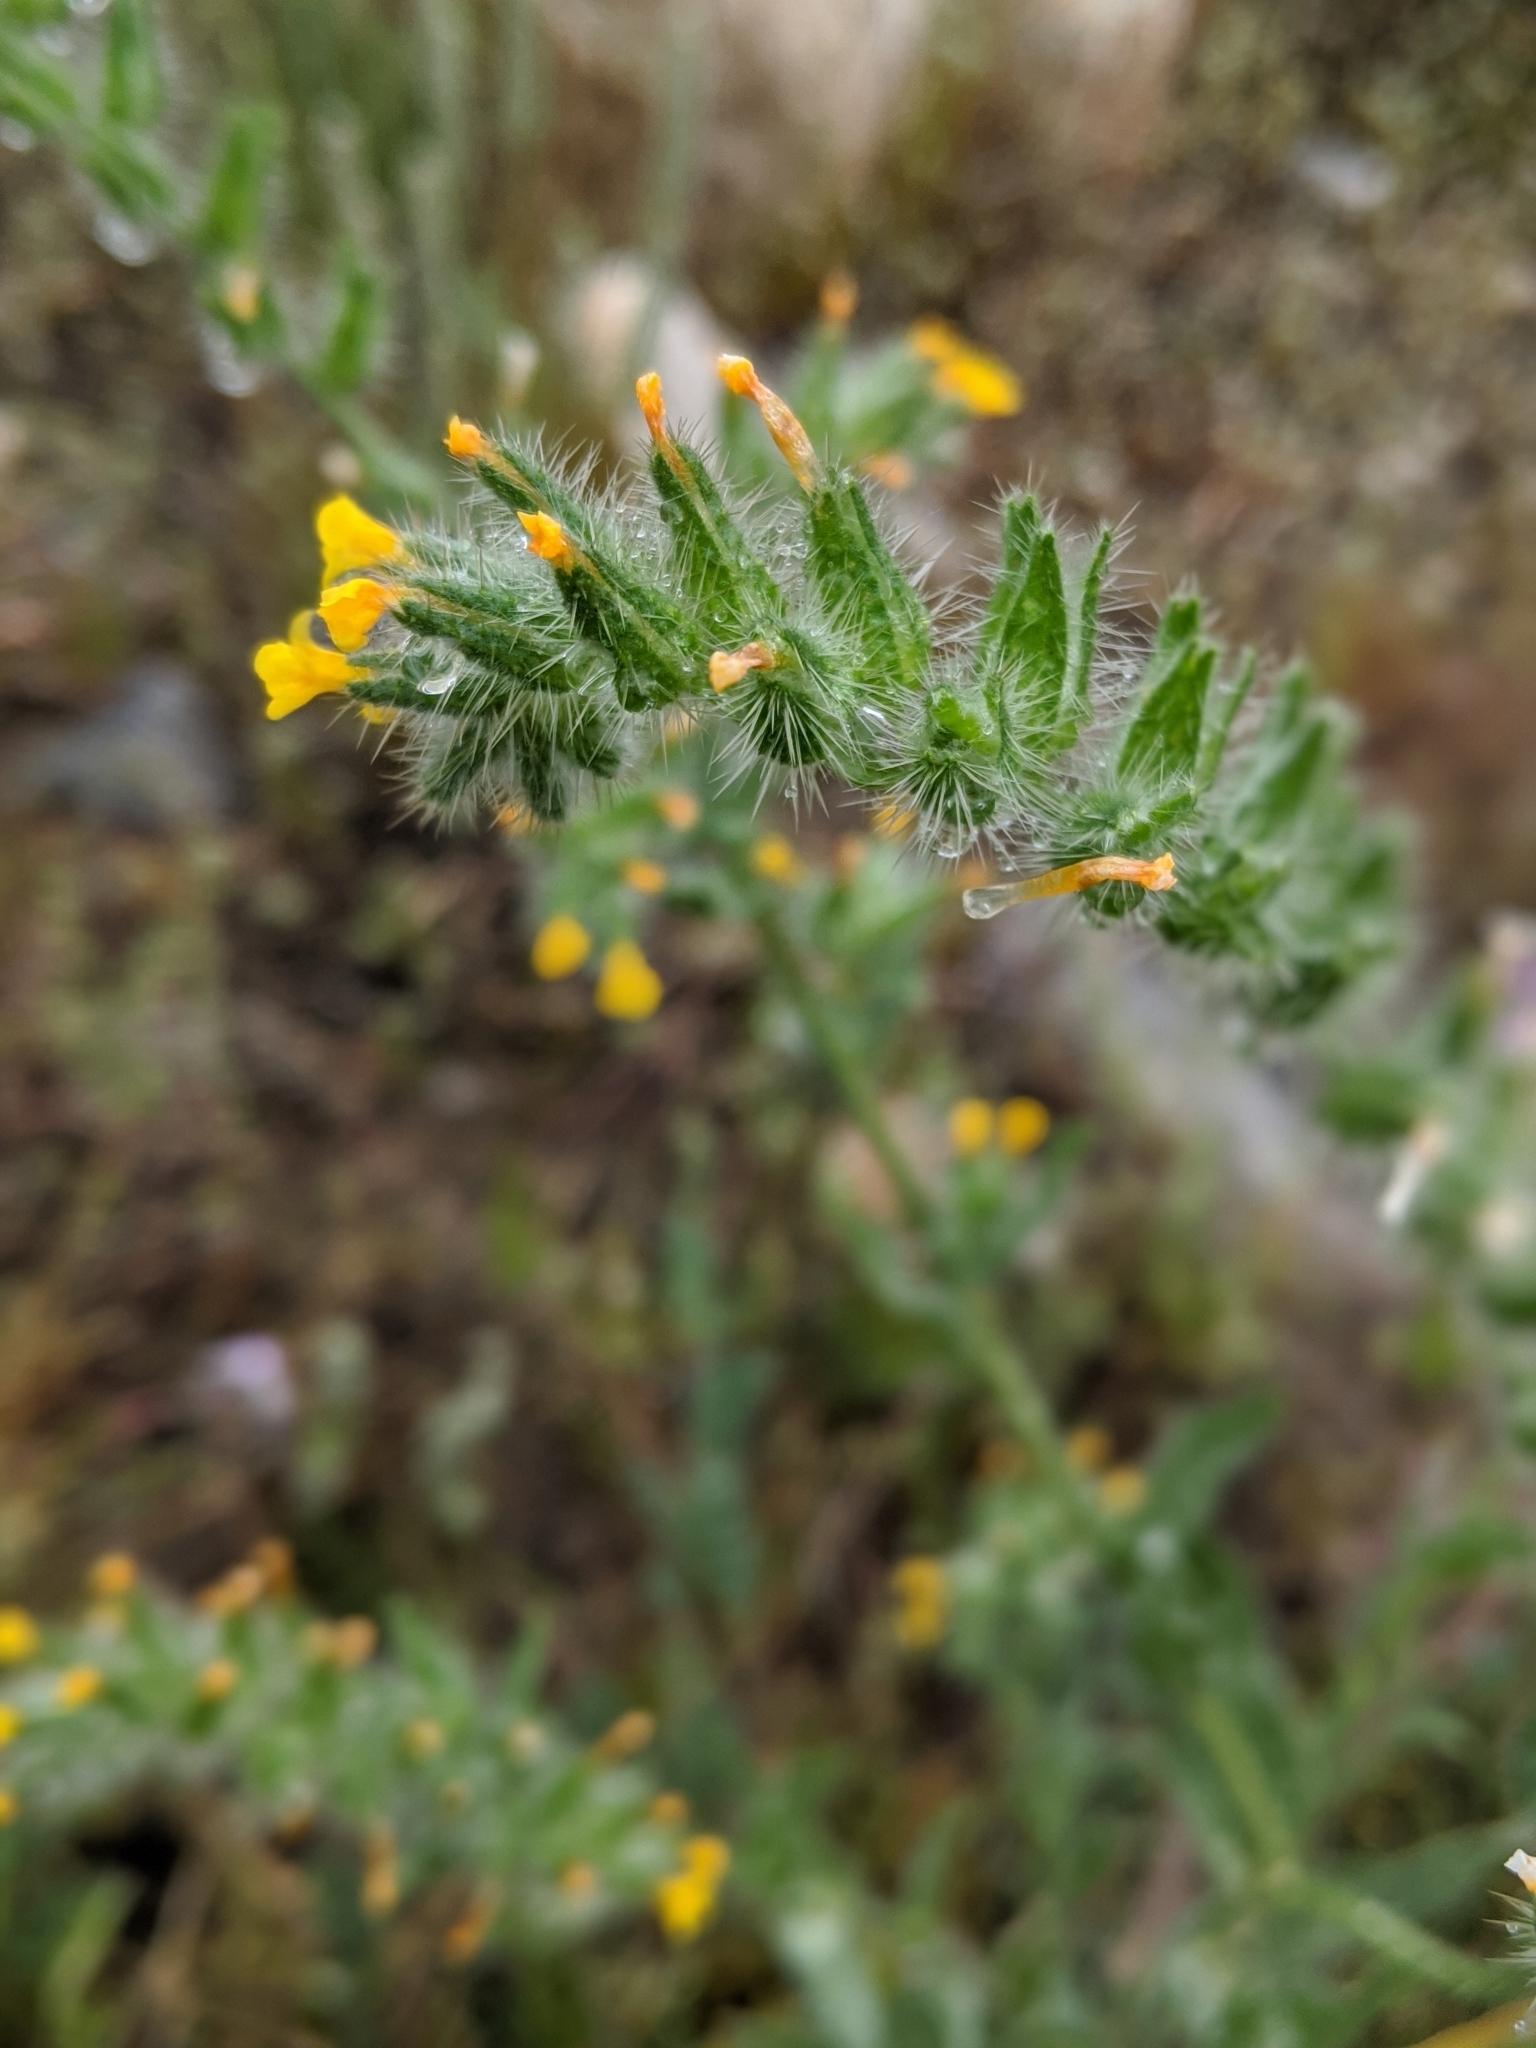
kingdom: Plantae
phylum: Tracheophyta
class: Magnoliopsida
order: Boraginales
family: Boraginaceae
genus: Amsinckia
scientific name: Amsinckia tessellata
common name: Tessellate fiddleneck
